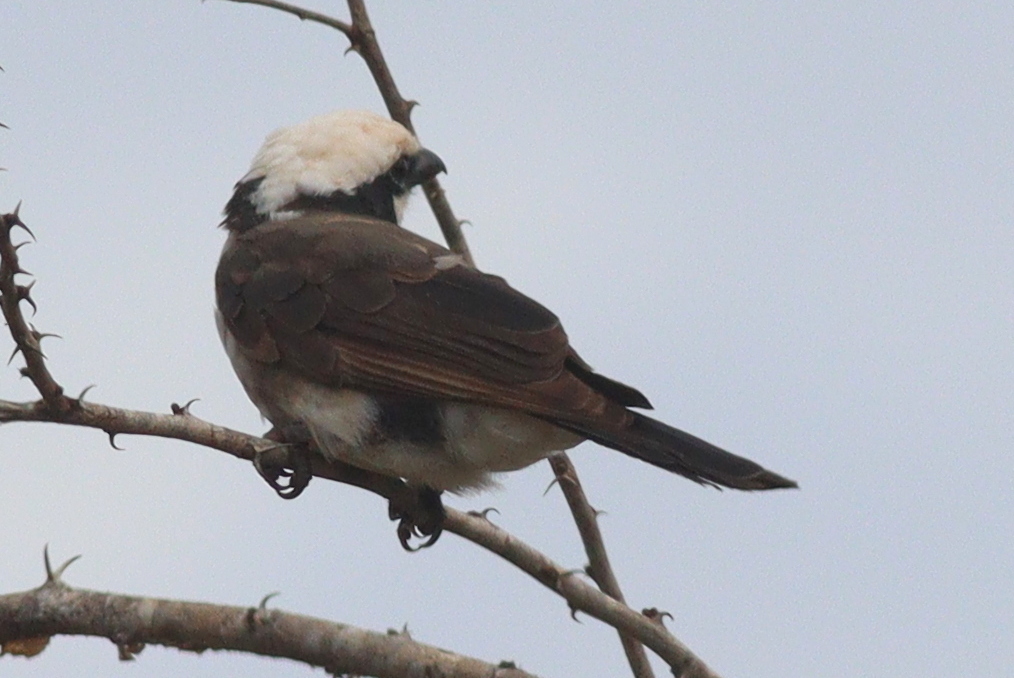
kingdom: Animalia
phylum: Chordata
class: Aves
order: Passeriformes
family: Laniidae
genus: Eurocephalus
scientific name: Eurocephalus ruppelli
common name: Northern white-crowned shrike
